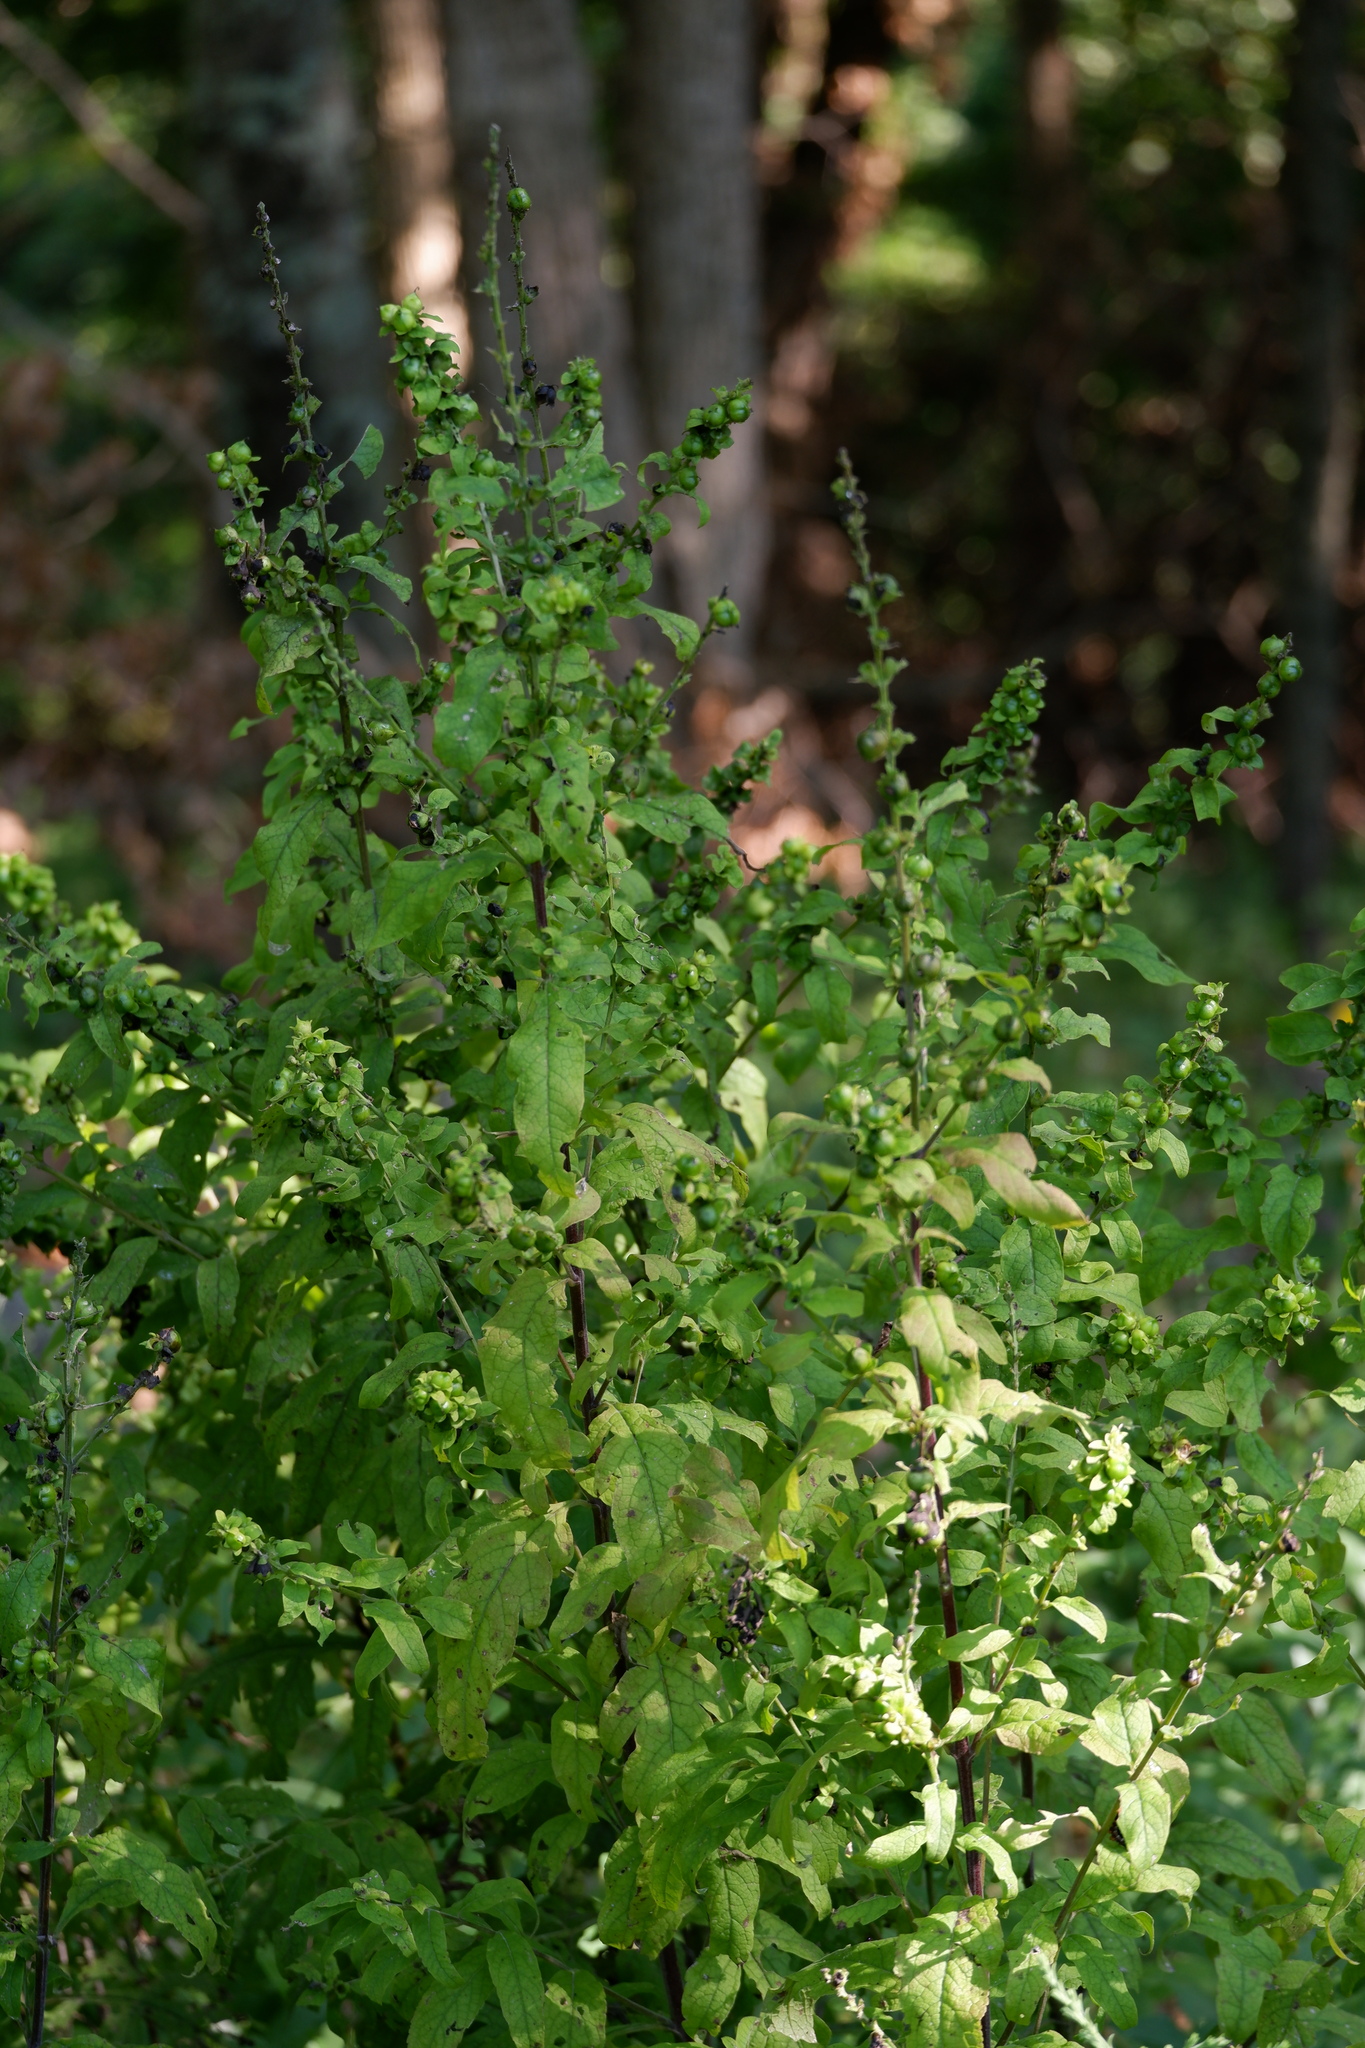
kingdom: Plantae
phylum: Tracheophyta
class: Magnoliopsida
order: Lamiales
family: Orobanchaceae
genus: Dasistoma
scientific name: Dasistoma macrophyllum
